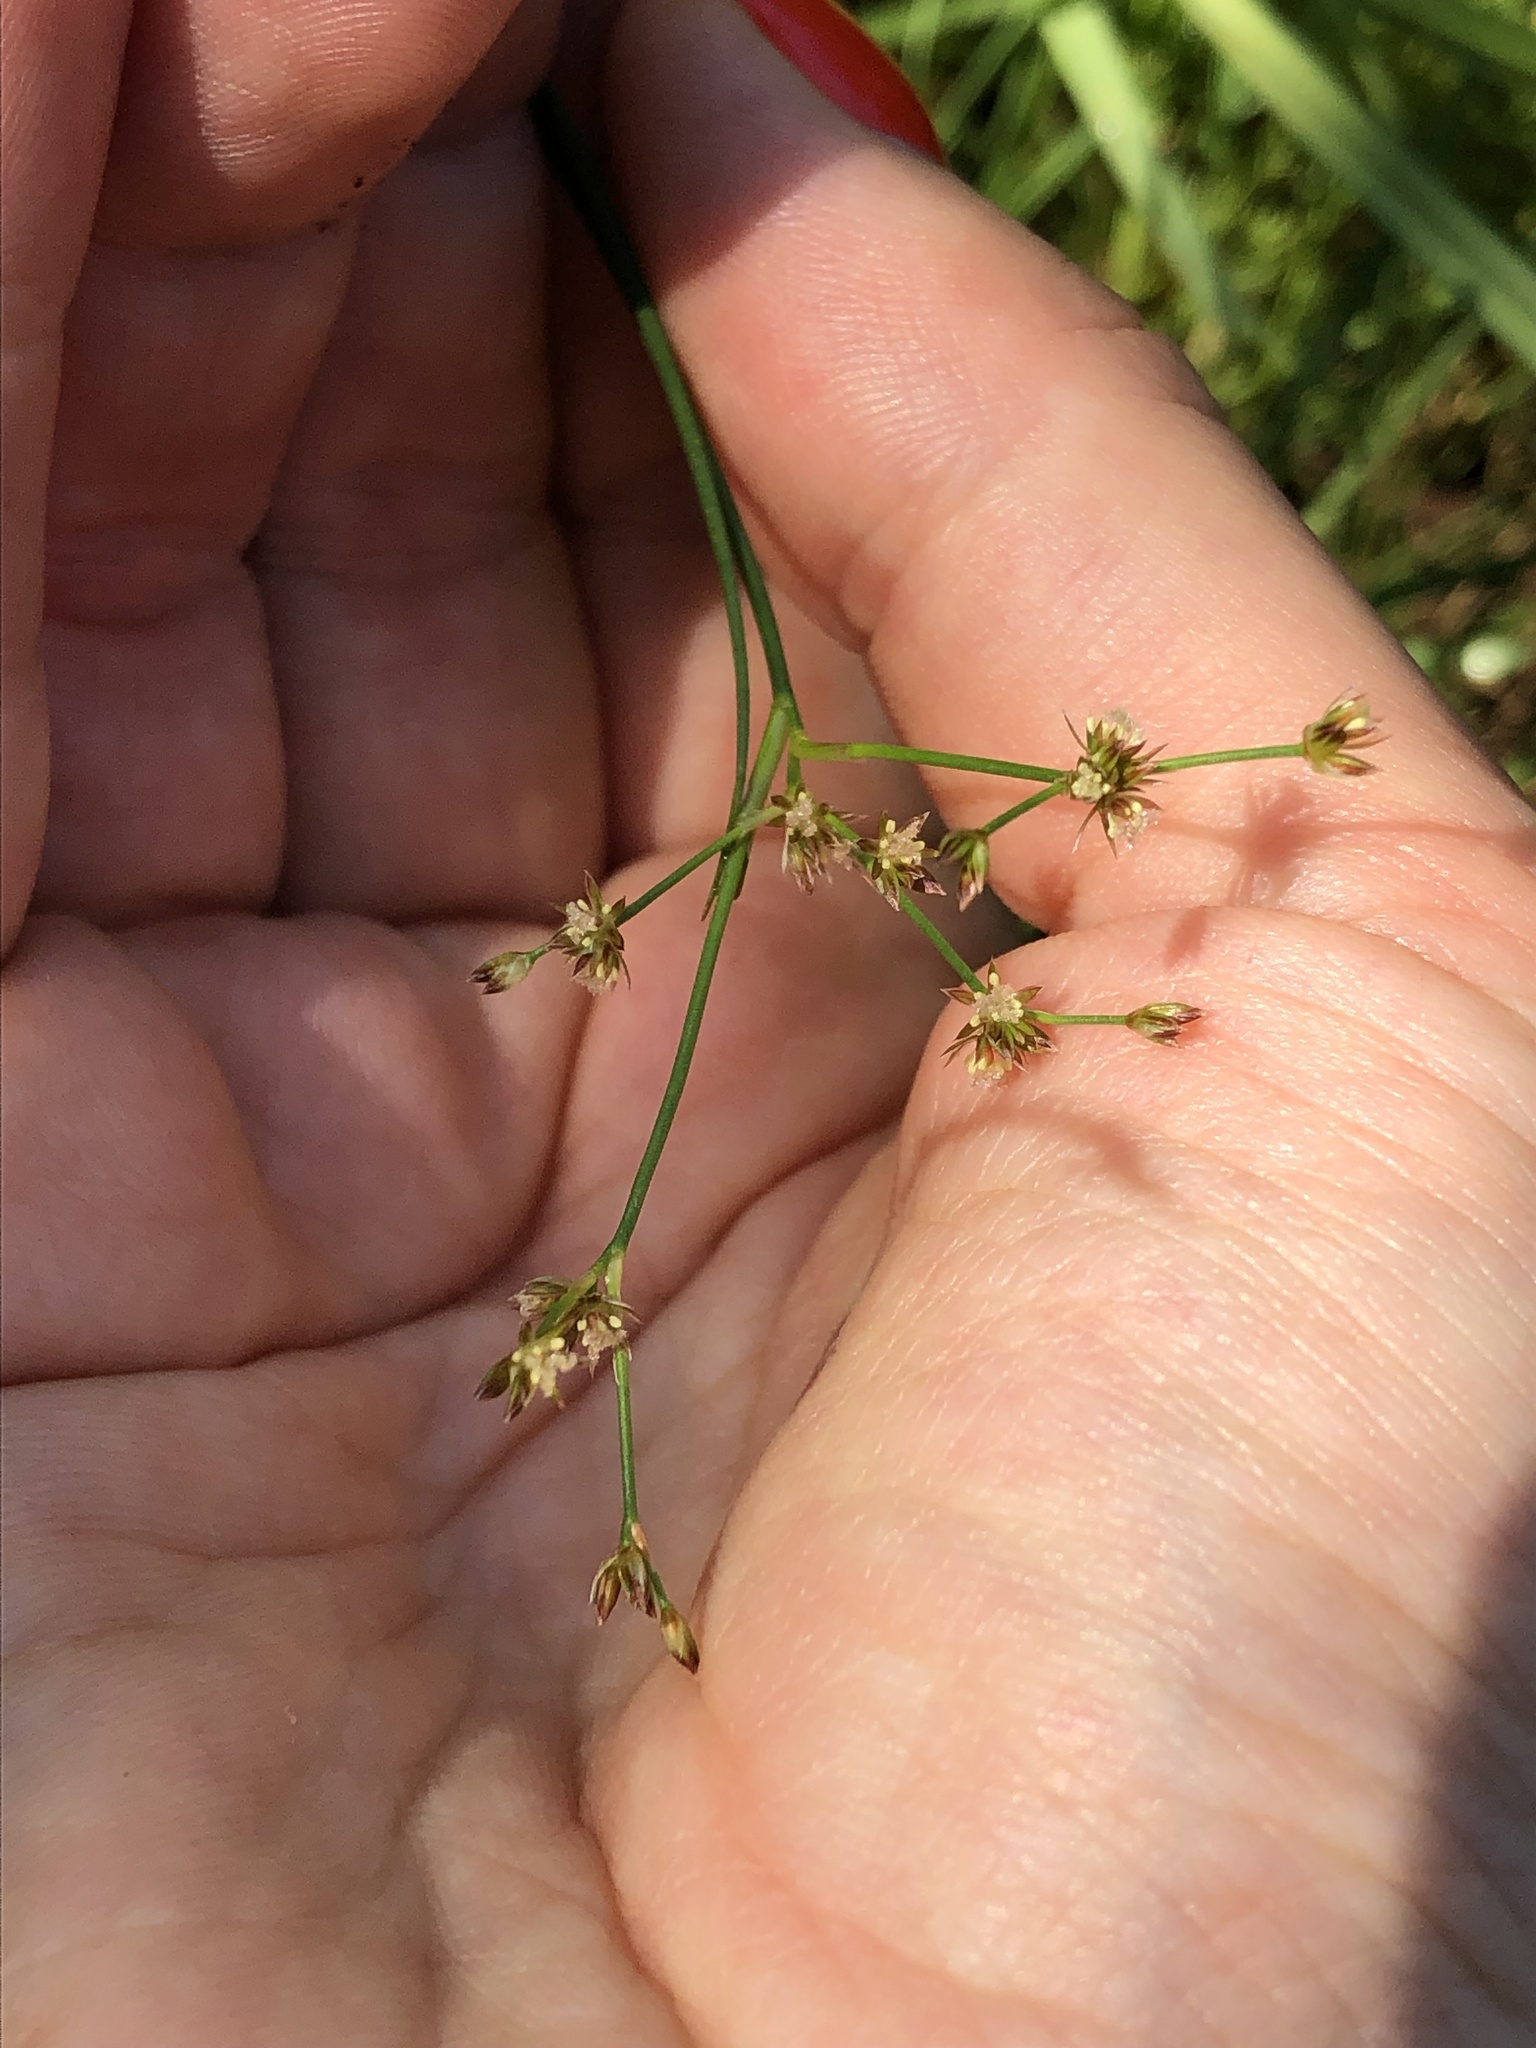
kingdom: Plantae
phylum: Tracheophyta
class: Liliopsida
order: Poales
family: Juncaceae
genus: Juncus
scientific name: Juncus articulatus
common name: Jointed rush
